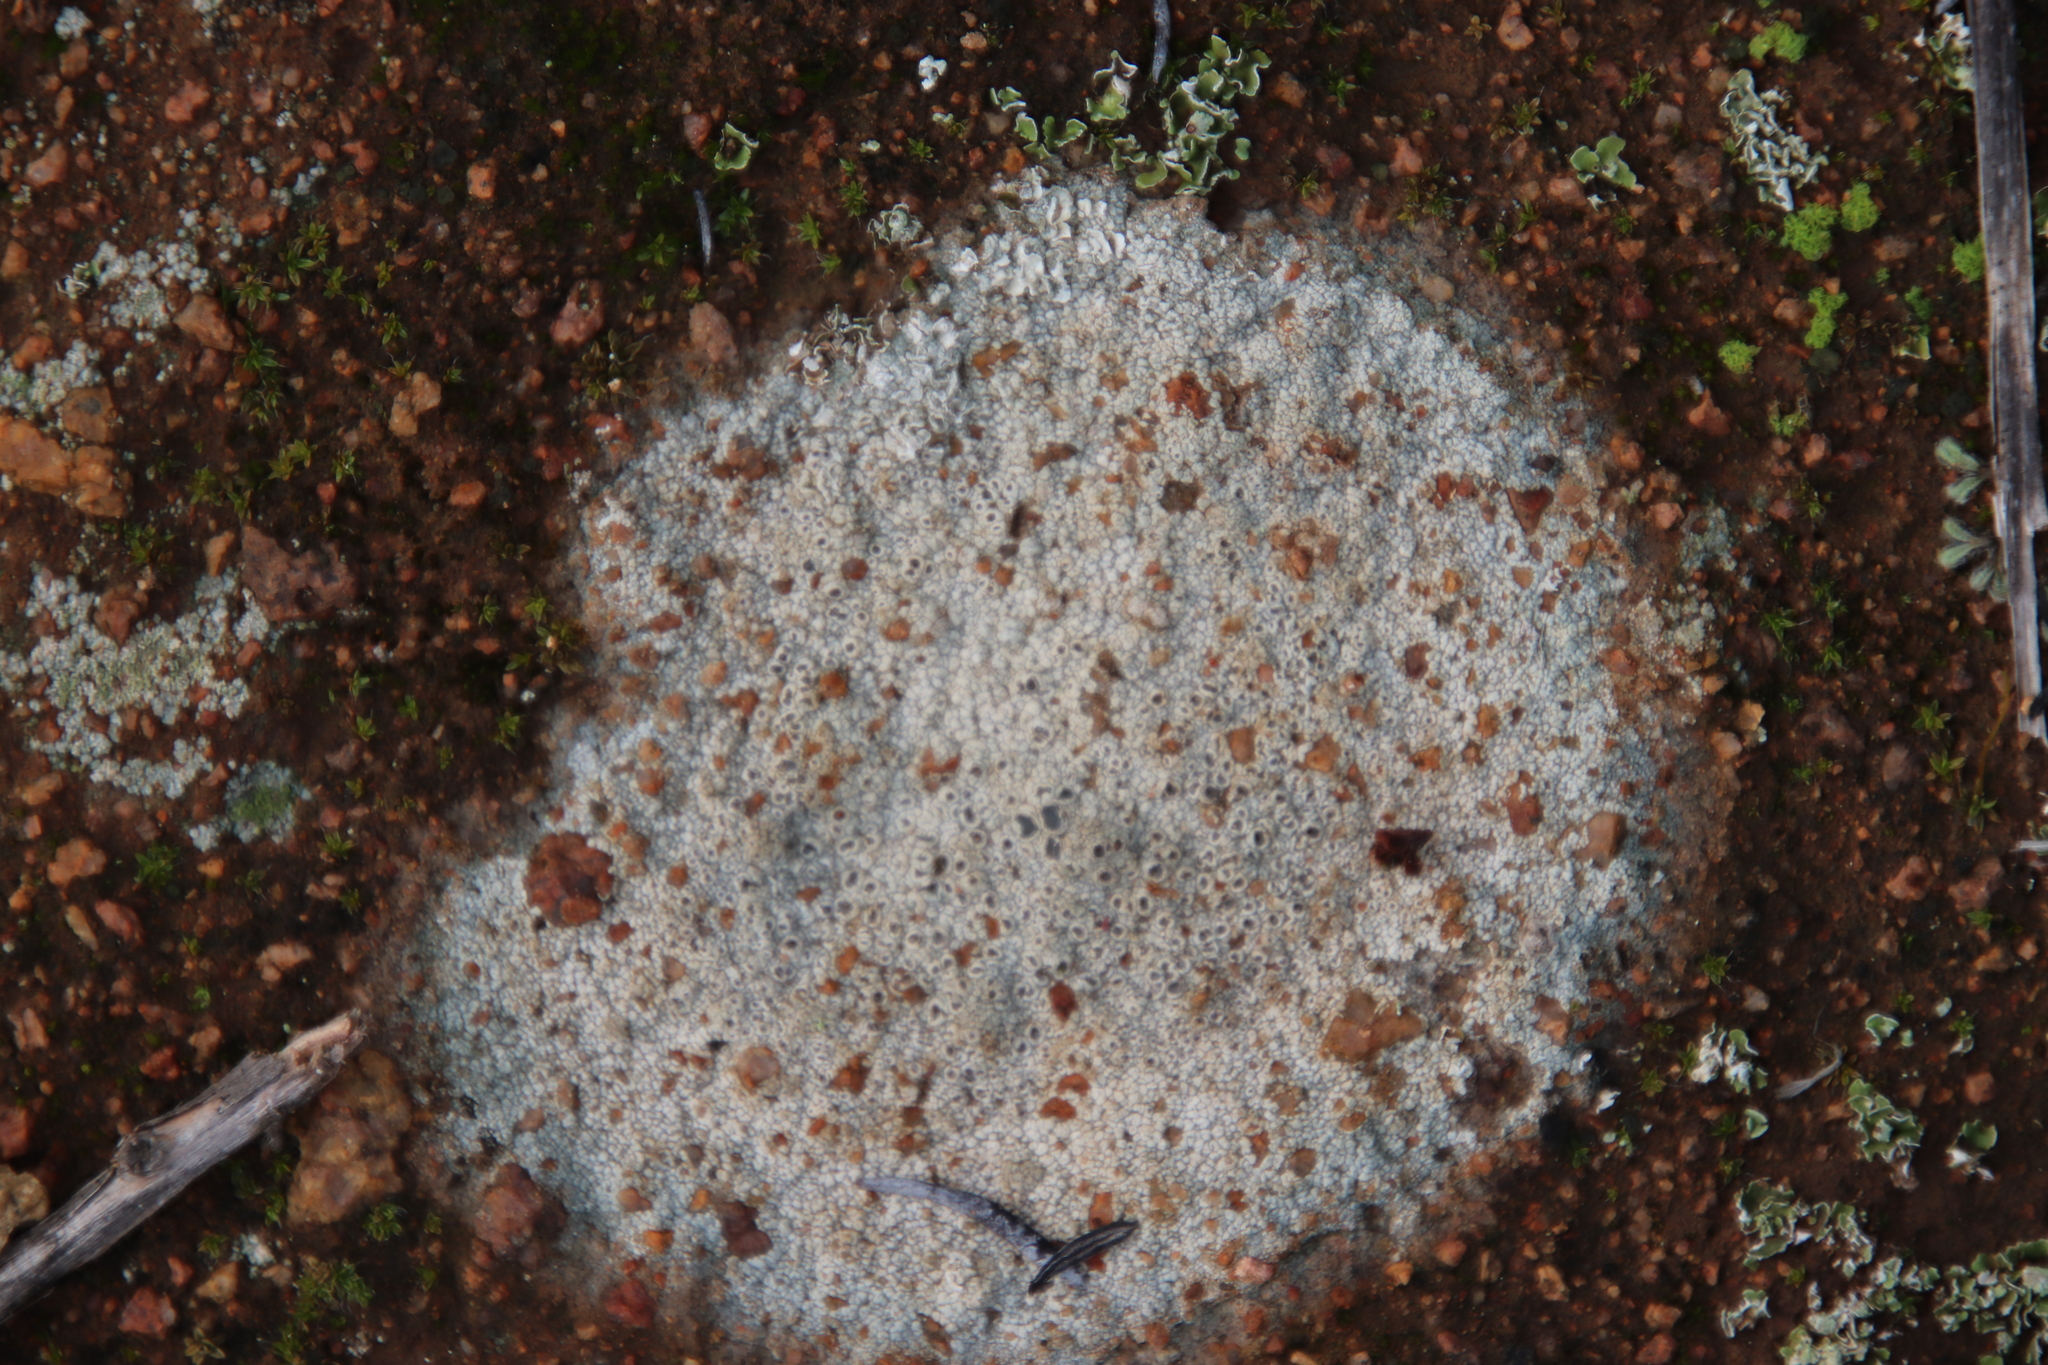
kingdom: Fungi
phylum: Ascomycota
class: Lecanoromycetes
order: Ostropales
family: Graphidaceae
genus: Diploschistes
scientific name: Diploschistes muscorum
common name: Cowpie lichen
